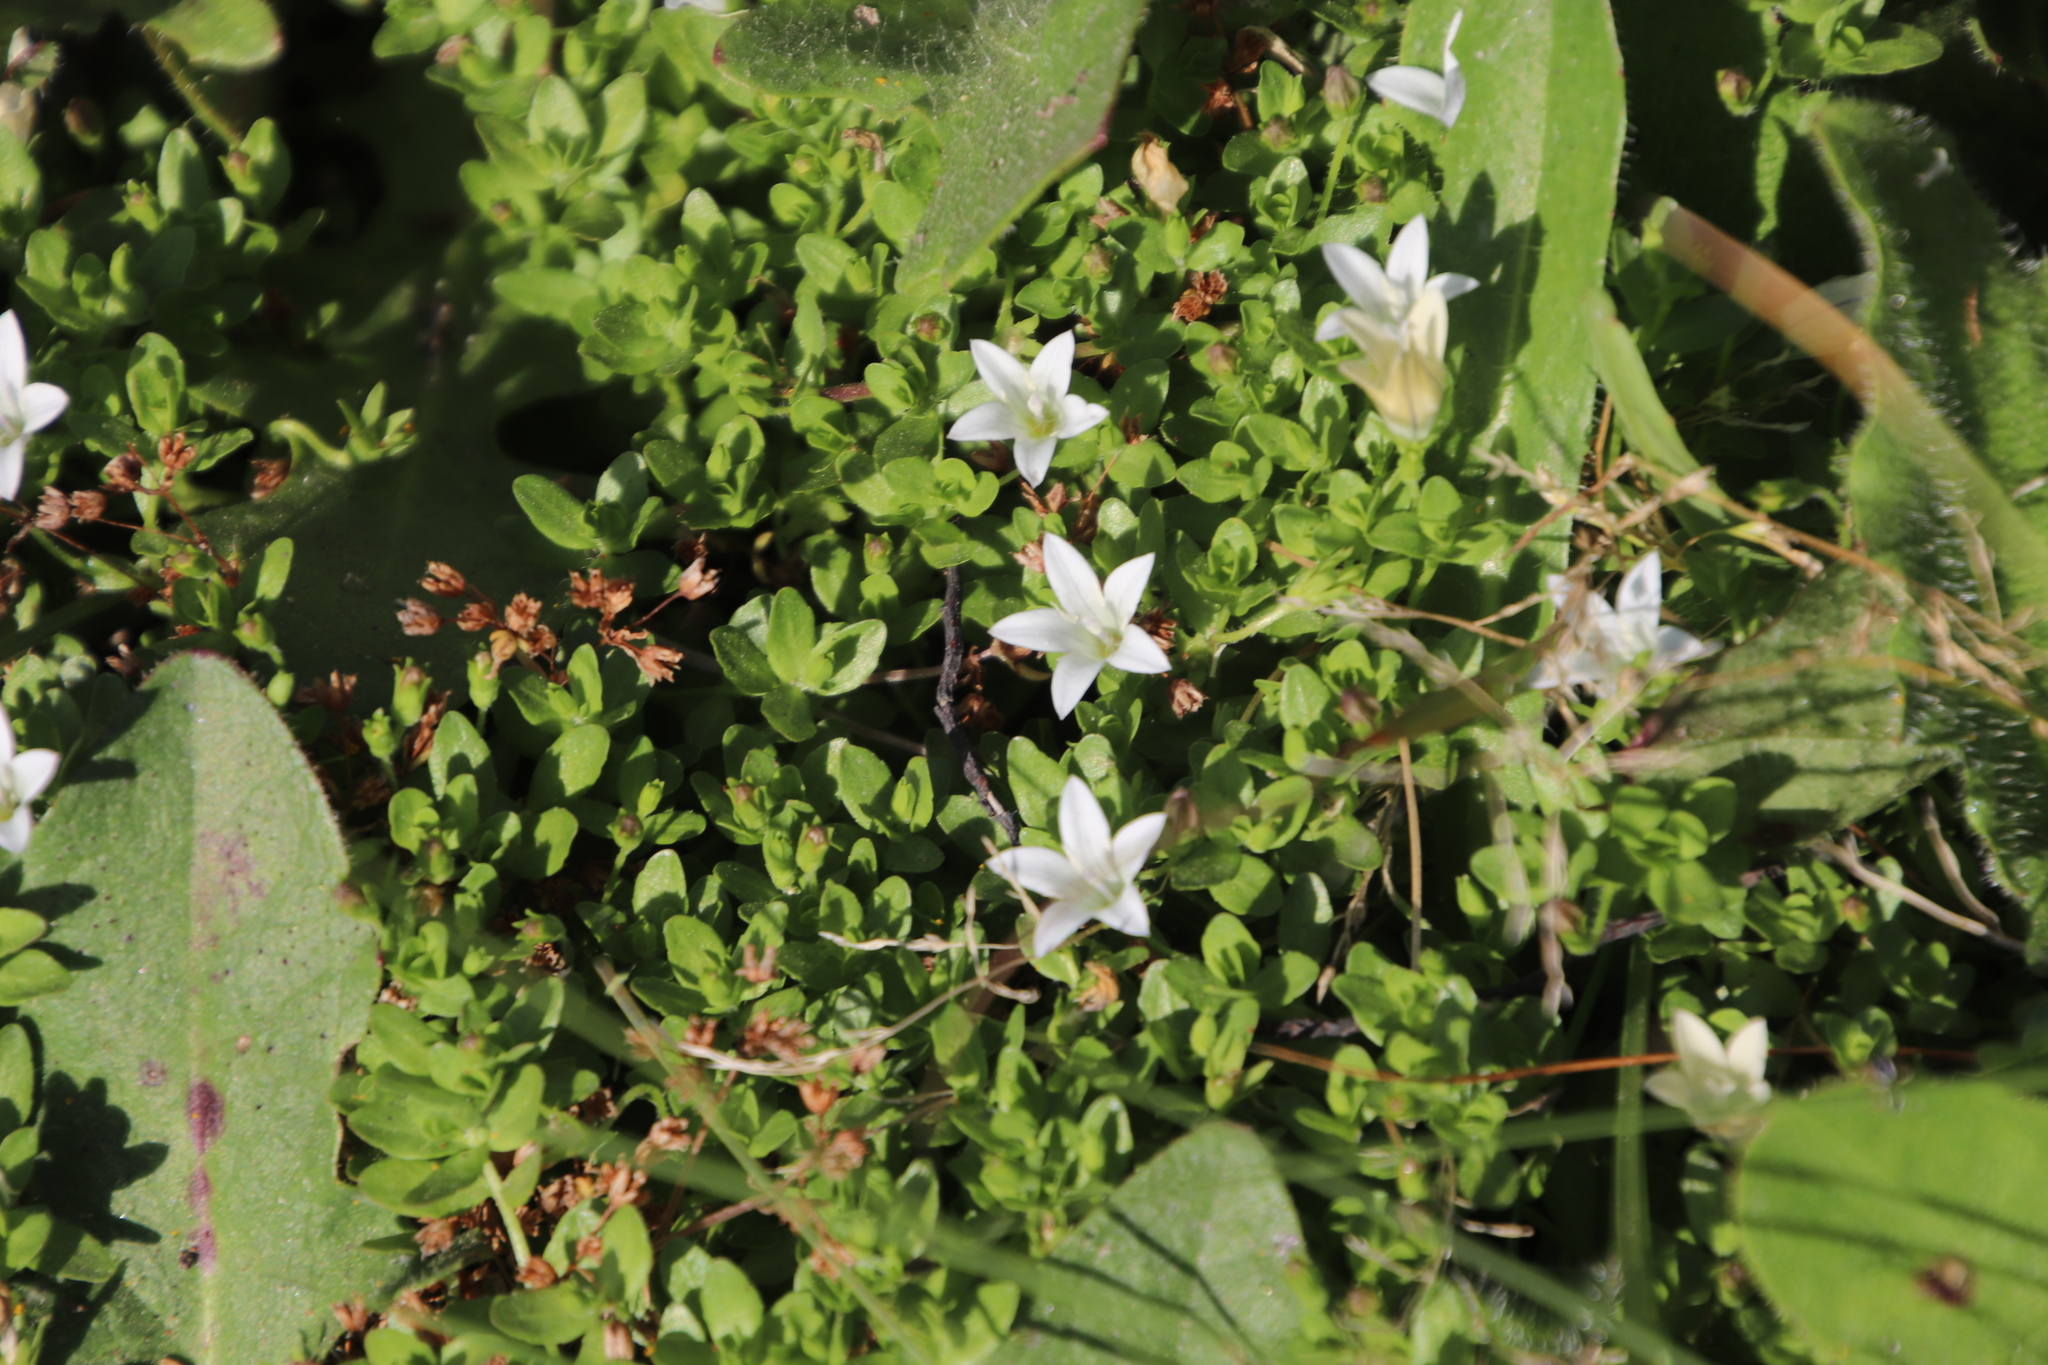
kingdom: Plantae
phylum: Tracheophyta
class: Magnoliopsida
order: Asterales
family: Campanulaceae
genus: Wahlenbergia
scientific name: Wahlenbergia procumbens
